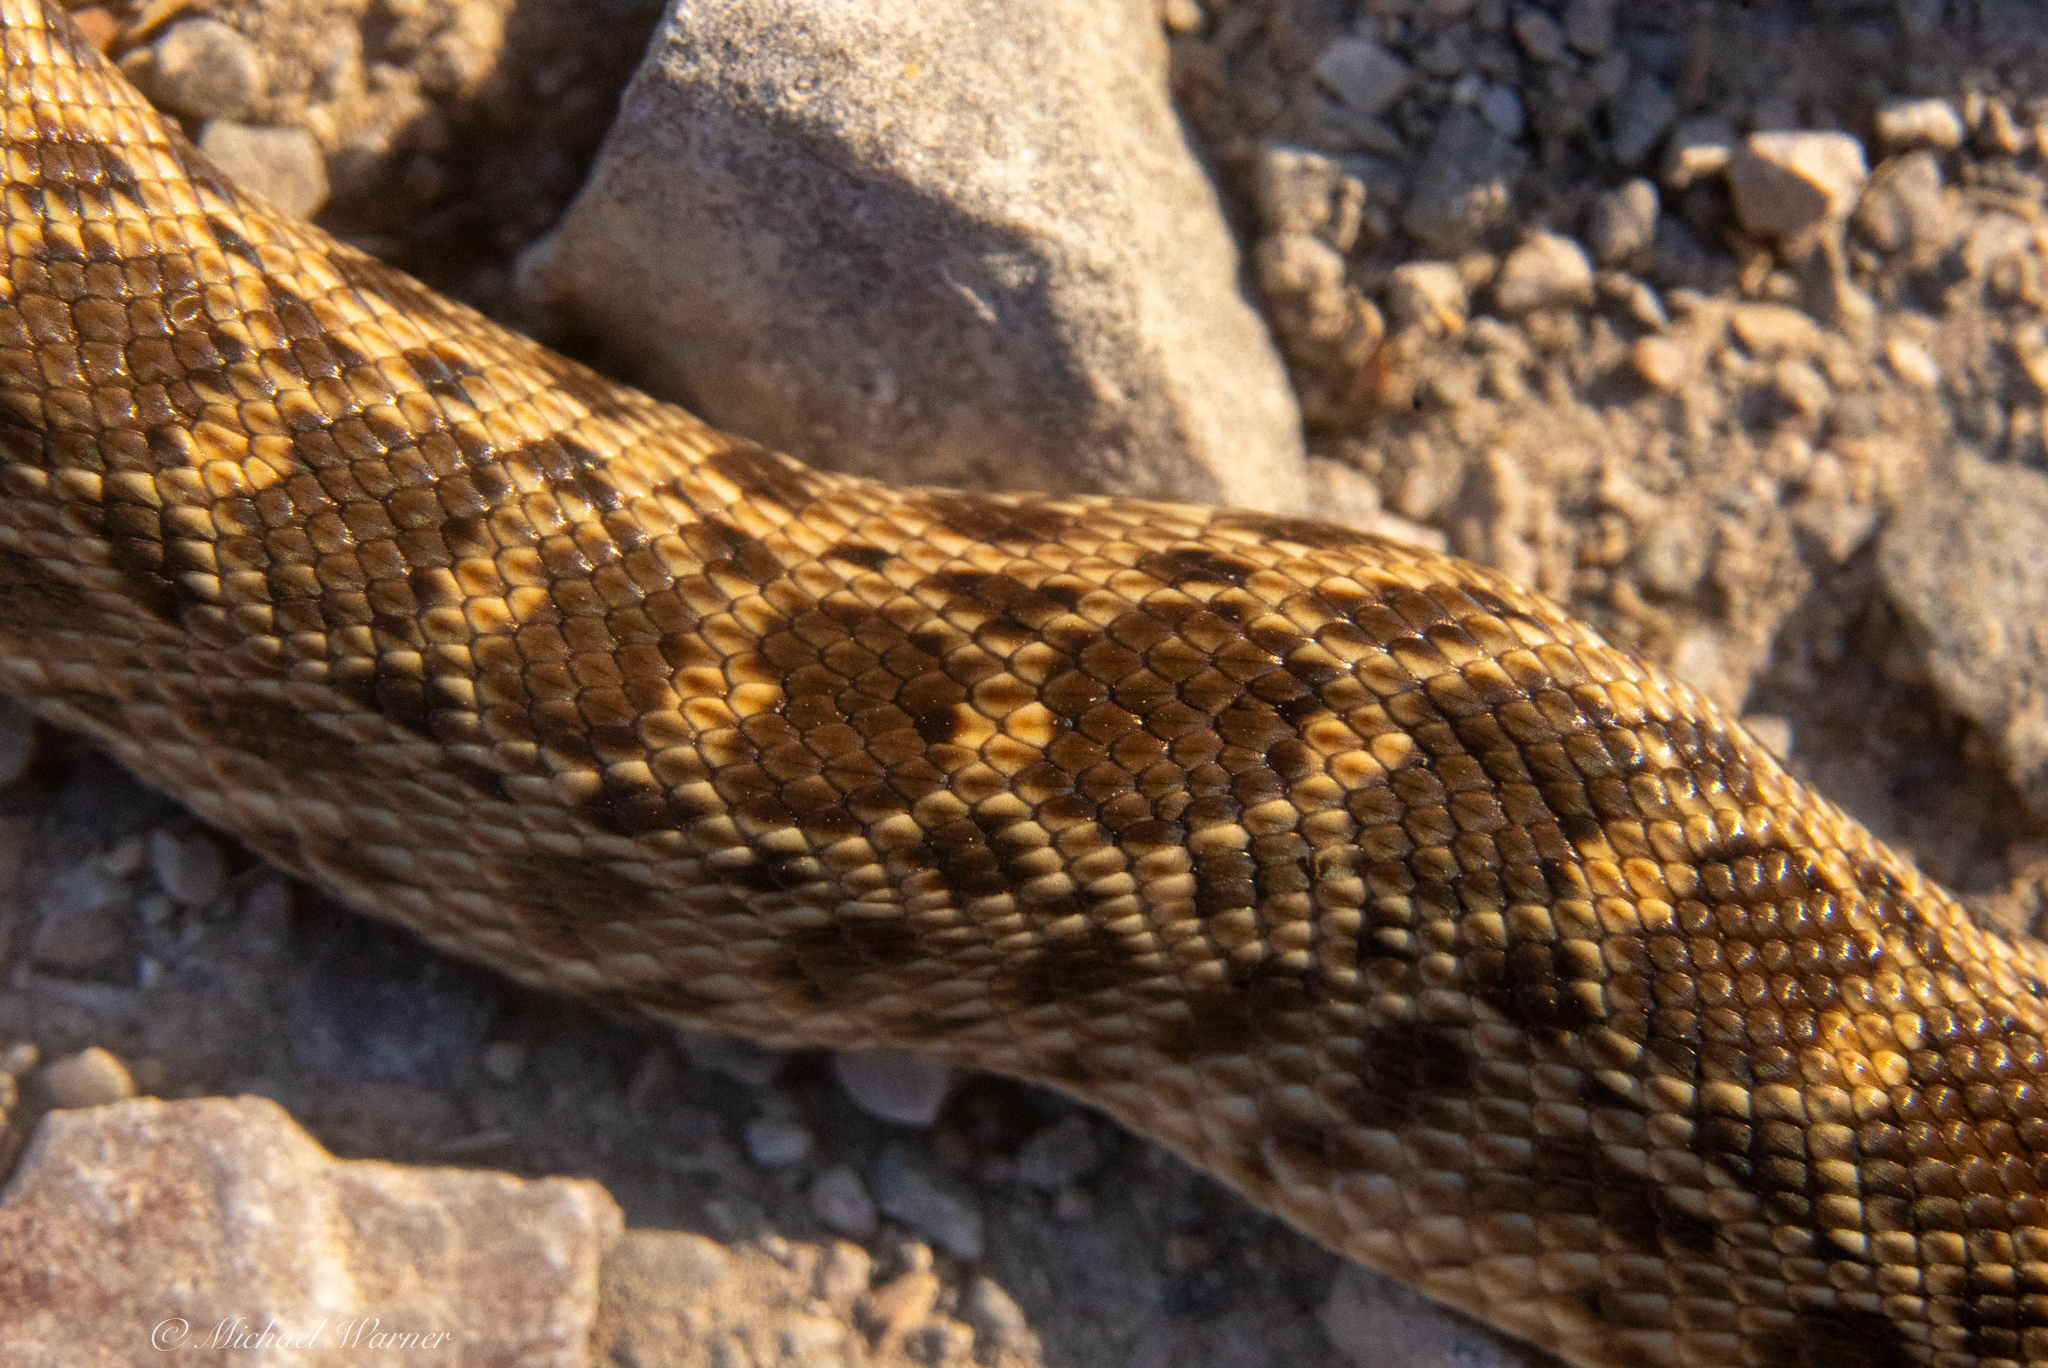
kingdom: Animalia
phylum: Chordata
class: Squamata
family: Colubridae
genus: Pituophis
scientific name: Pituophis catenifer
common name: Gopher snake
